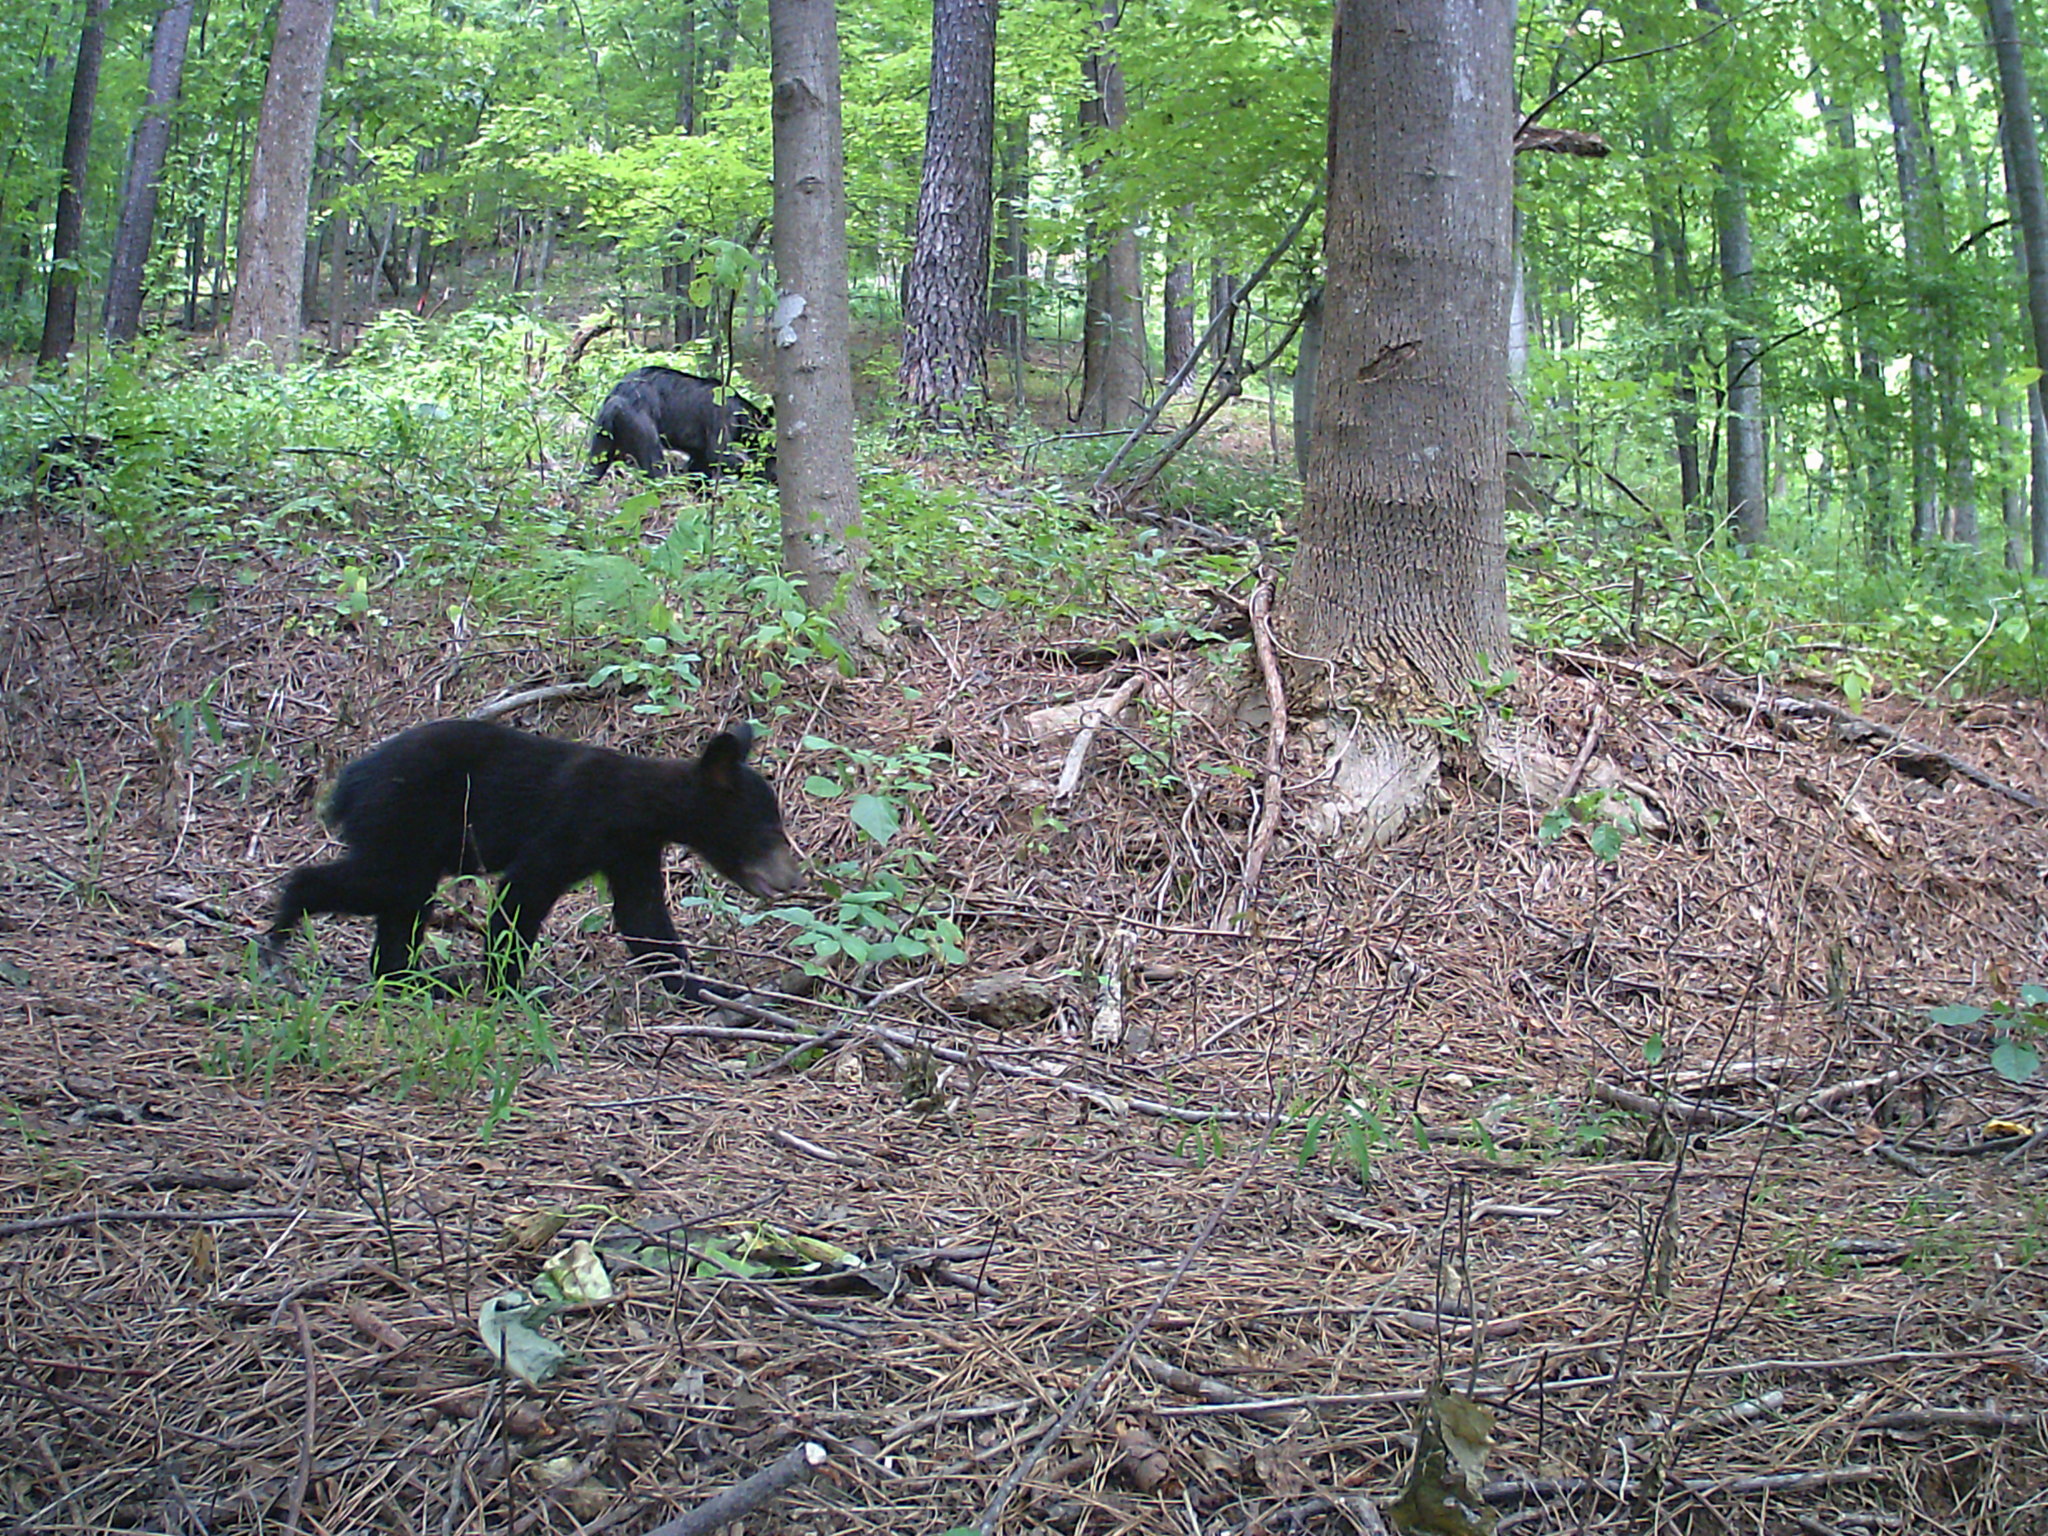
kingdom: Animalia
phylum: Chordata
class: Mammalia
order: Carnivora
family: Ursidae
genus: Ursus
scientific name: Ursus americanus
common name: American black bear
